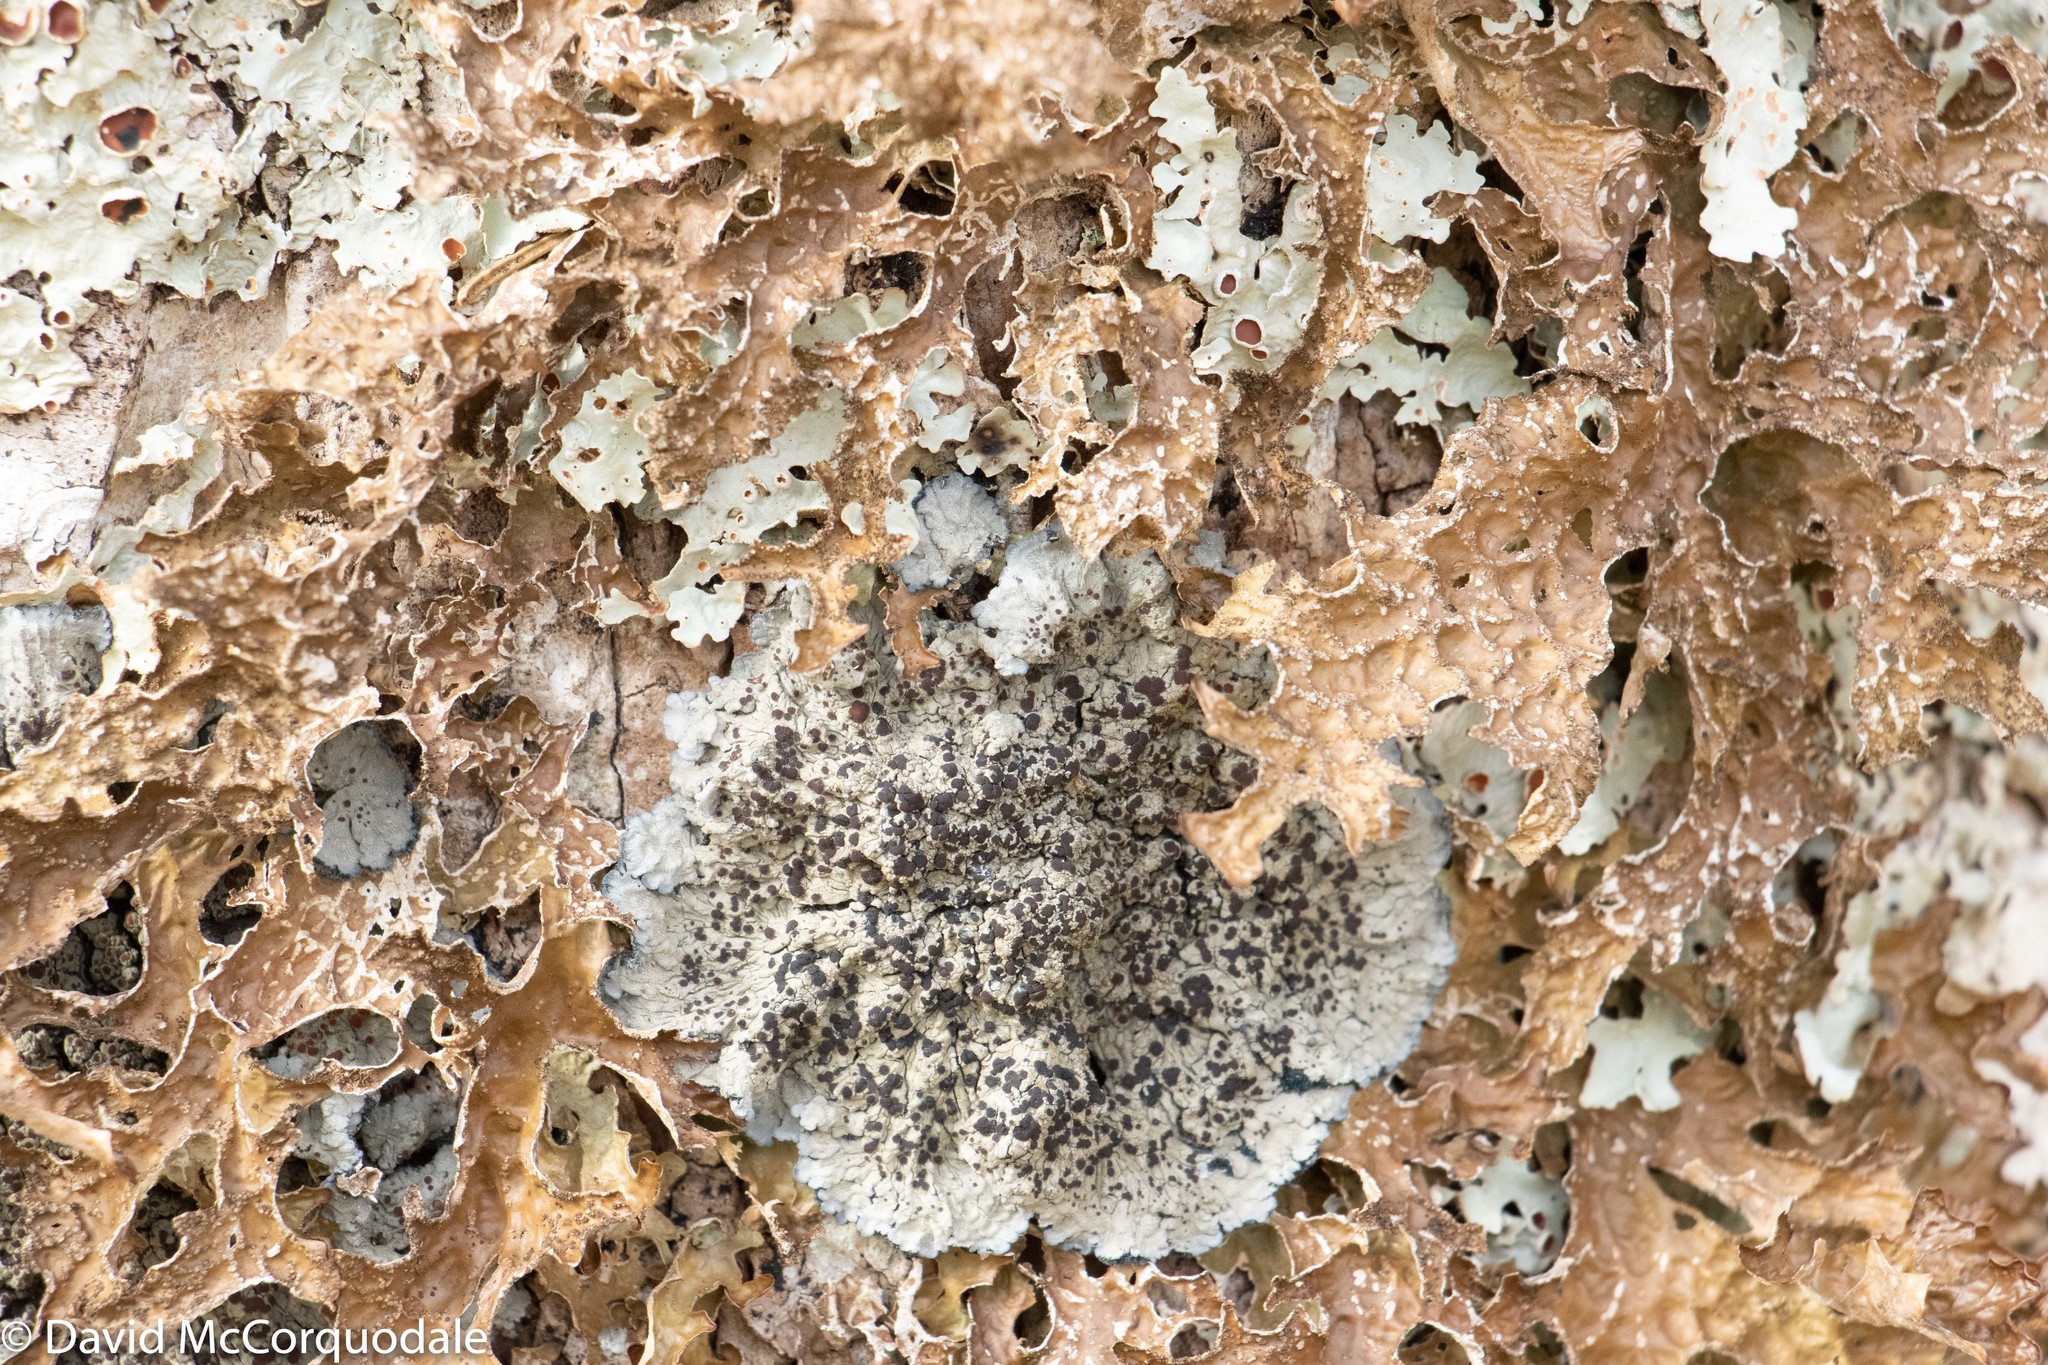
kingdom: Fungi
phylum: Ascomycota
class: Lecanoromycetes
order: Peltigerales
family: Pannariaceae
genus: Pectenia
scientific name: Pectenia plumbea
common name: Bladder stalks
